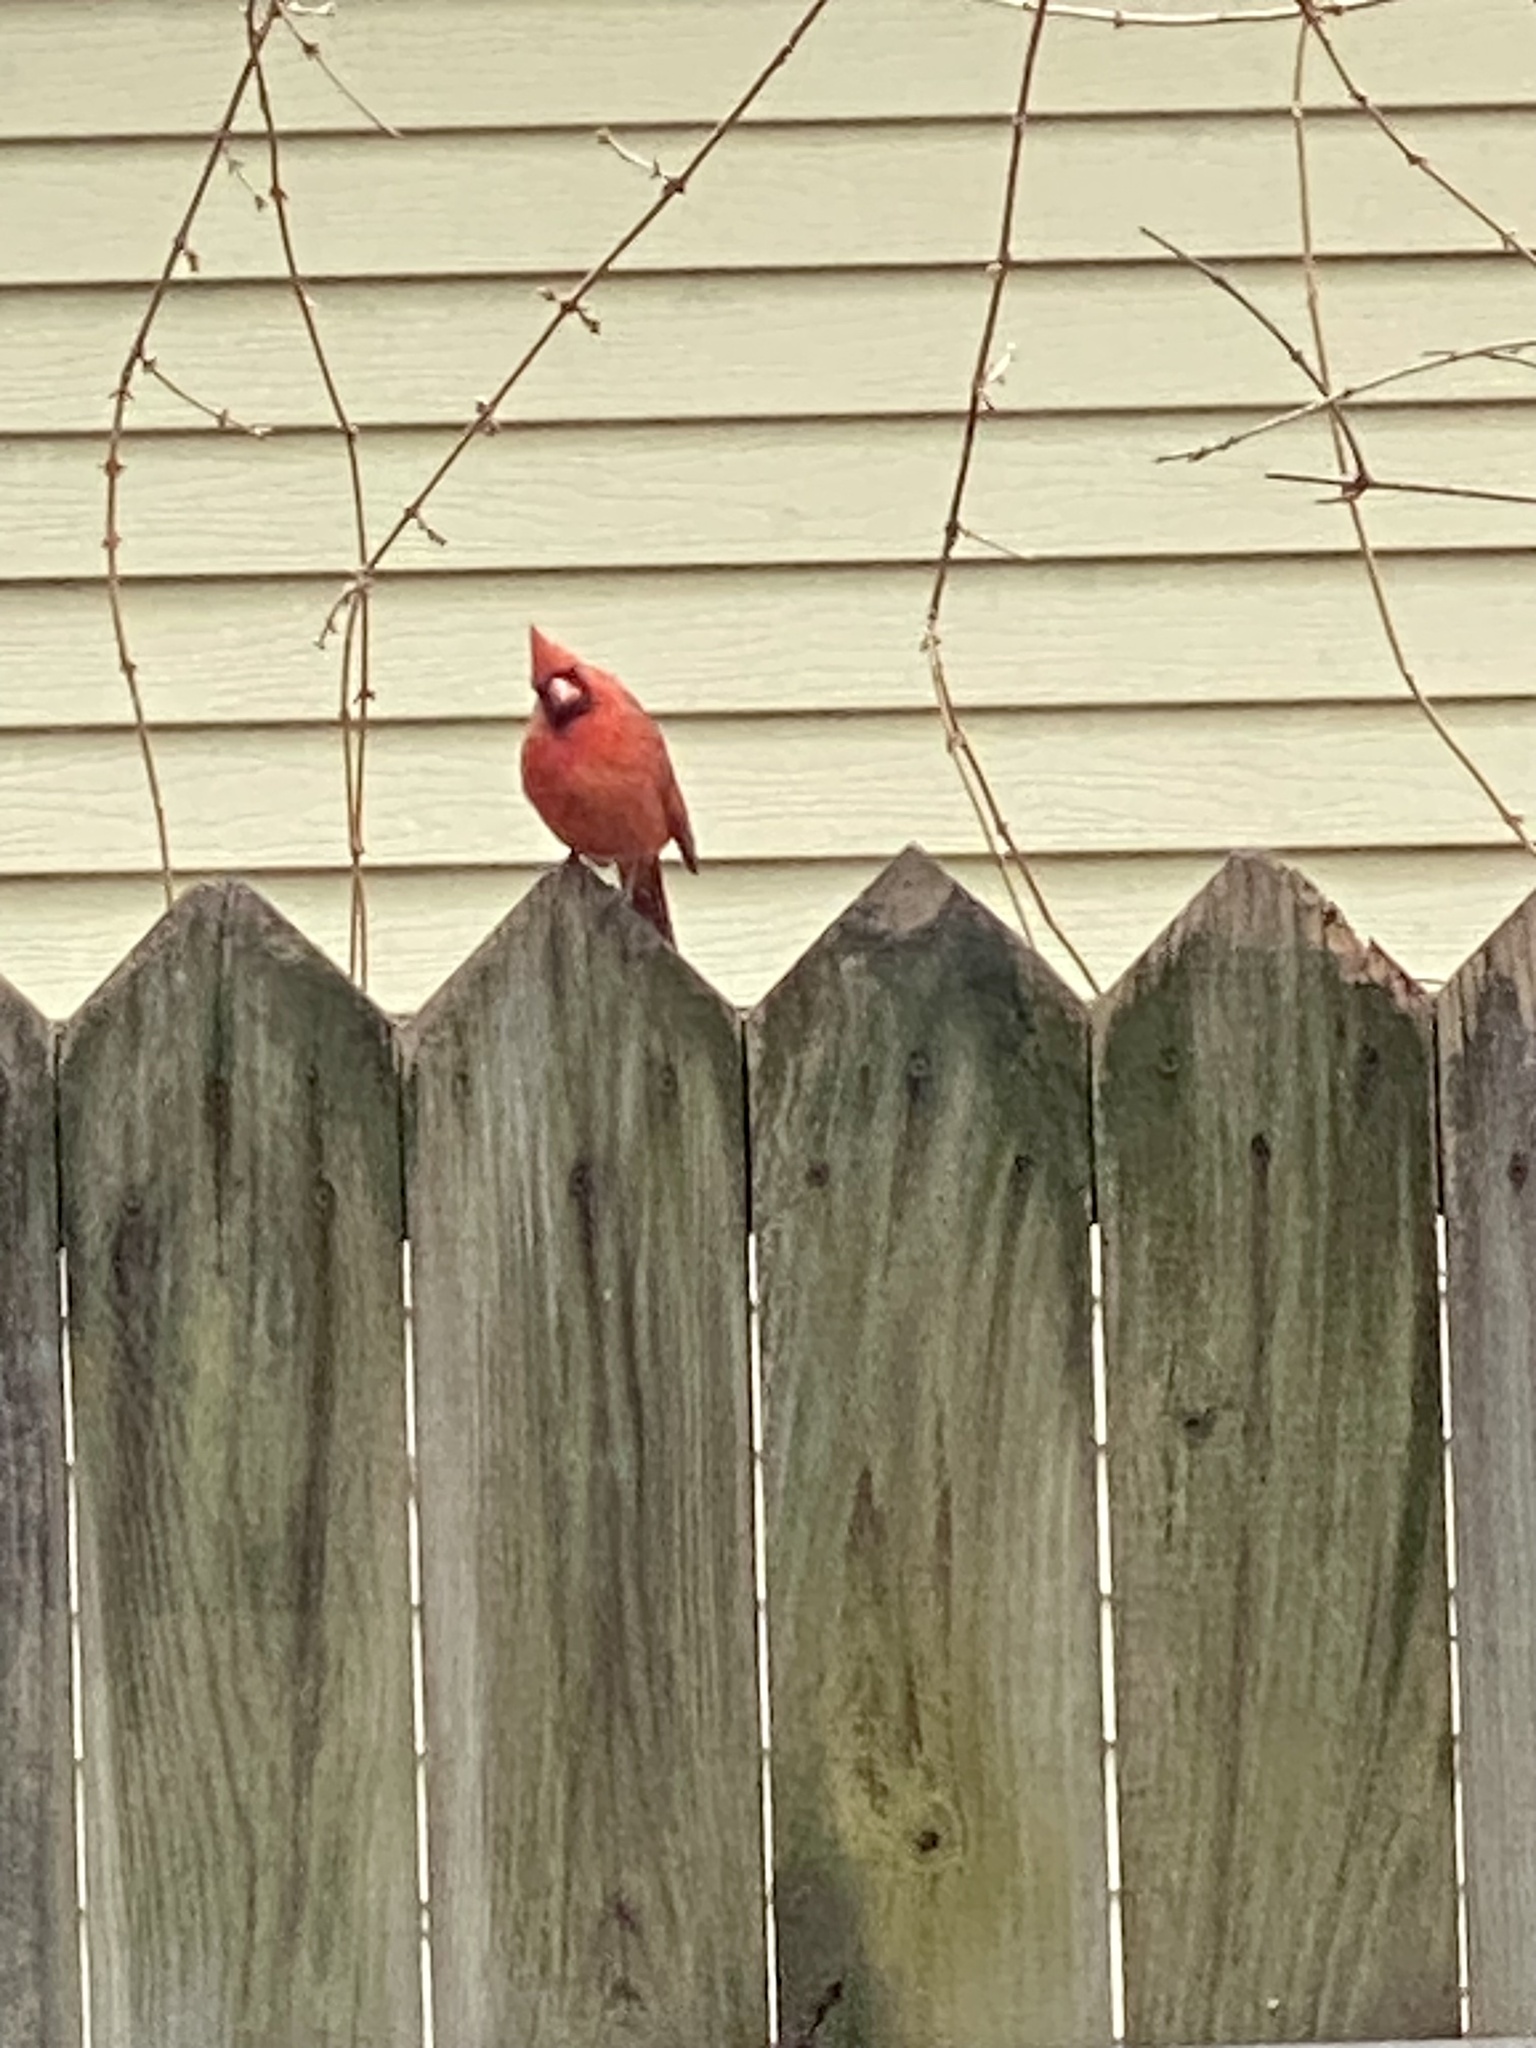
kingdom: Animalia
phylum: Chordata
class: Aves
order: Passeriformes
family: Cardinalidae
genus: Cardinalis
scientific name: Cardinalis cardinalis
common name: Northern cardinal
